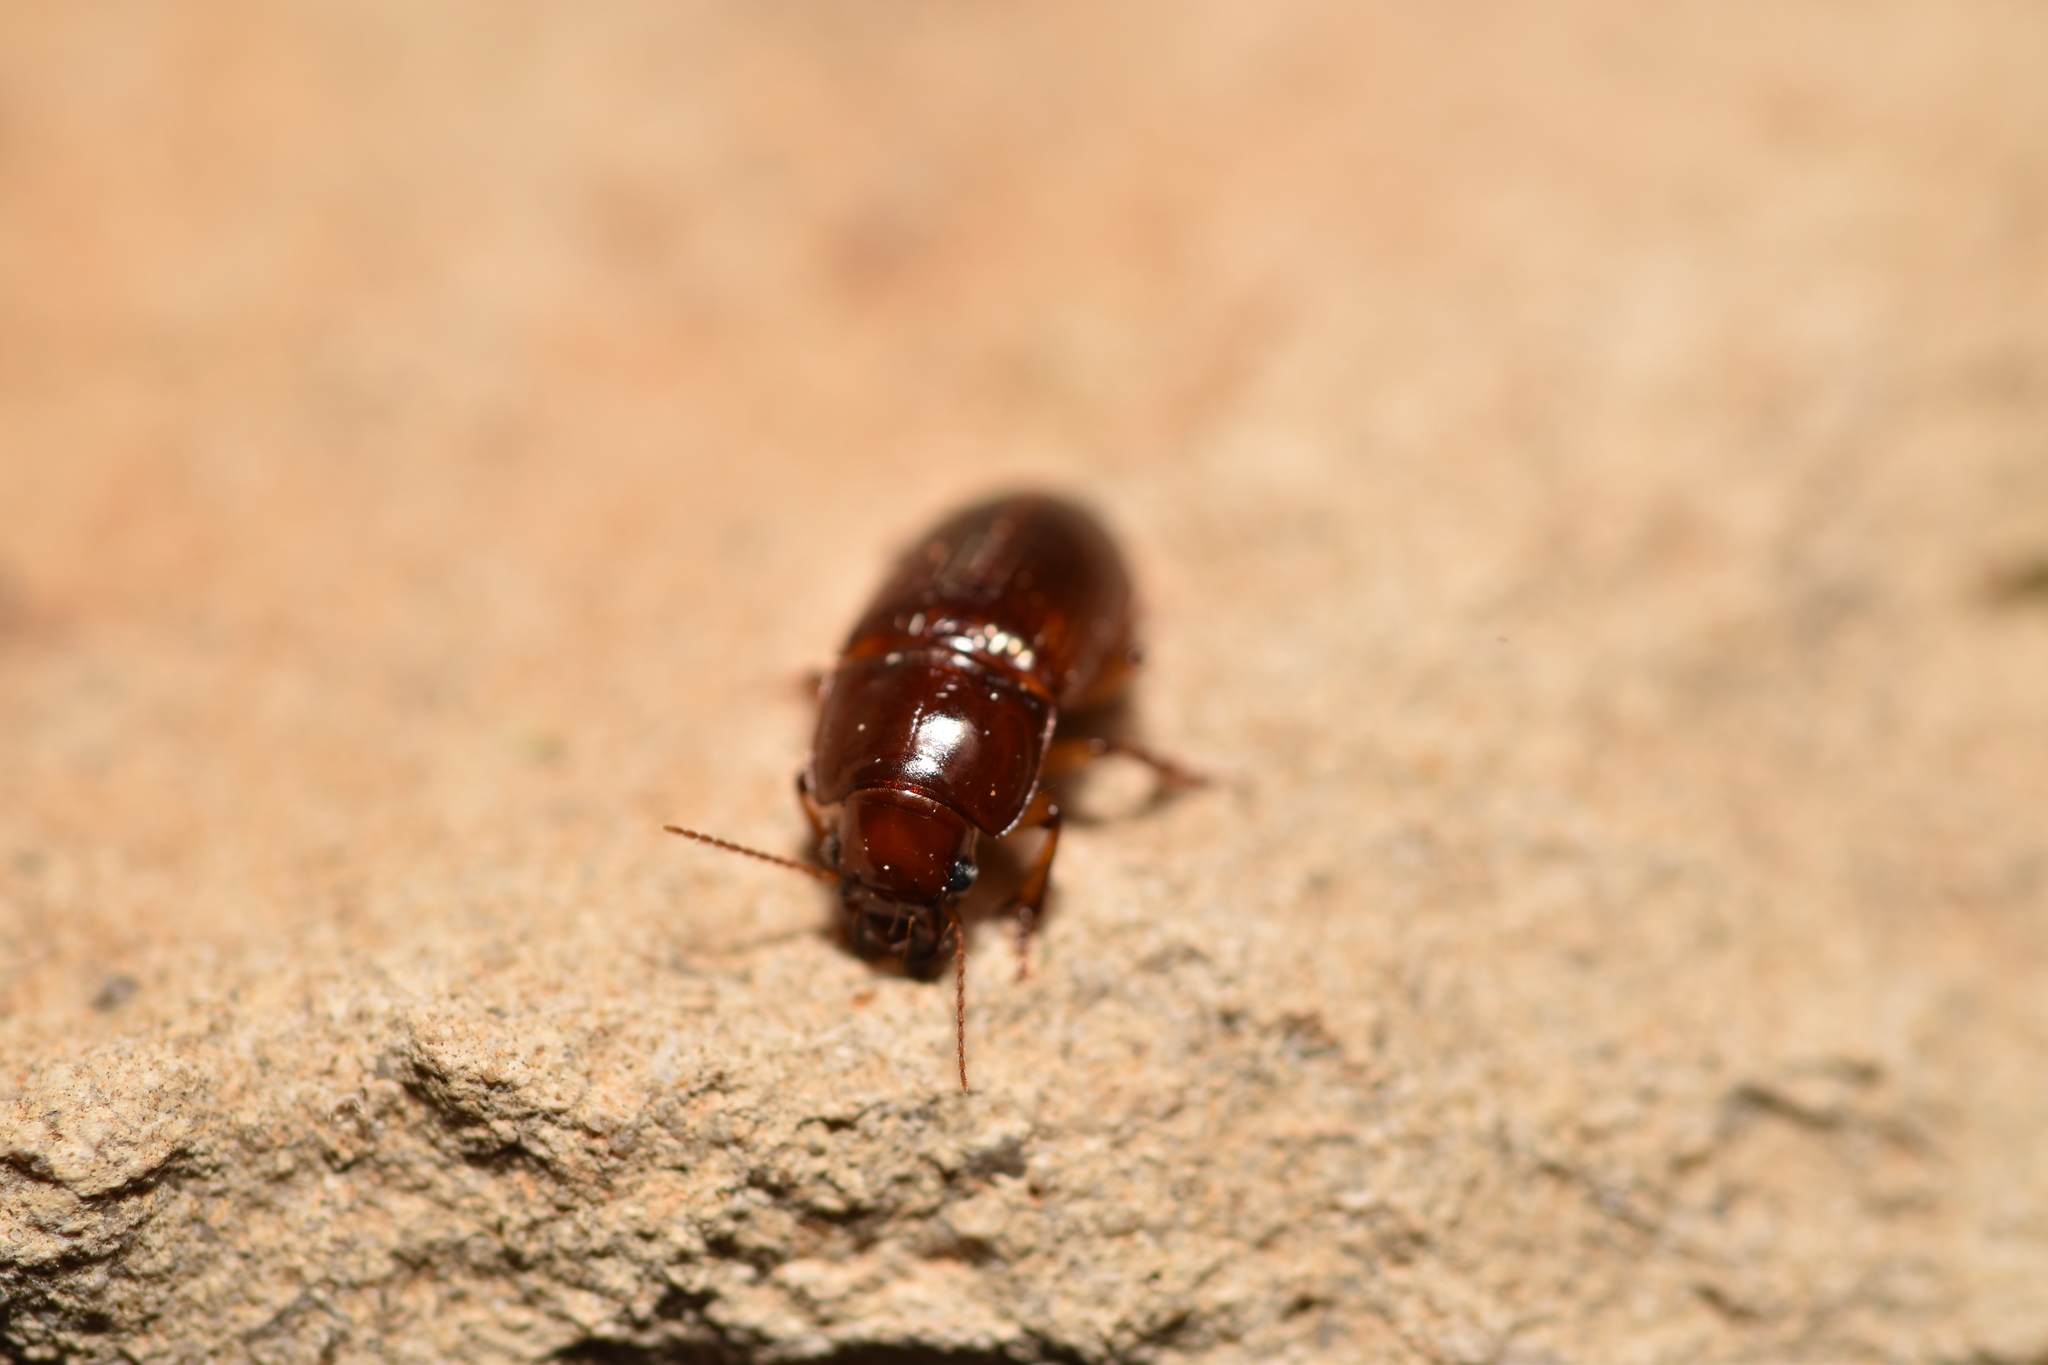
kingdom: Animalia
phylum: Arthropoda
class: Insecta
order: Coleoptera
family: Carabidae
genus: Harpalus
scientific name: Harpalus gravis
